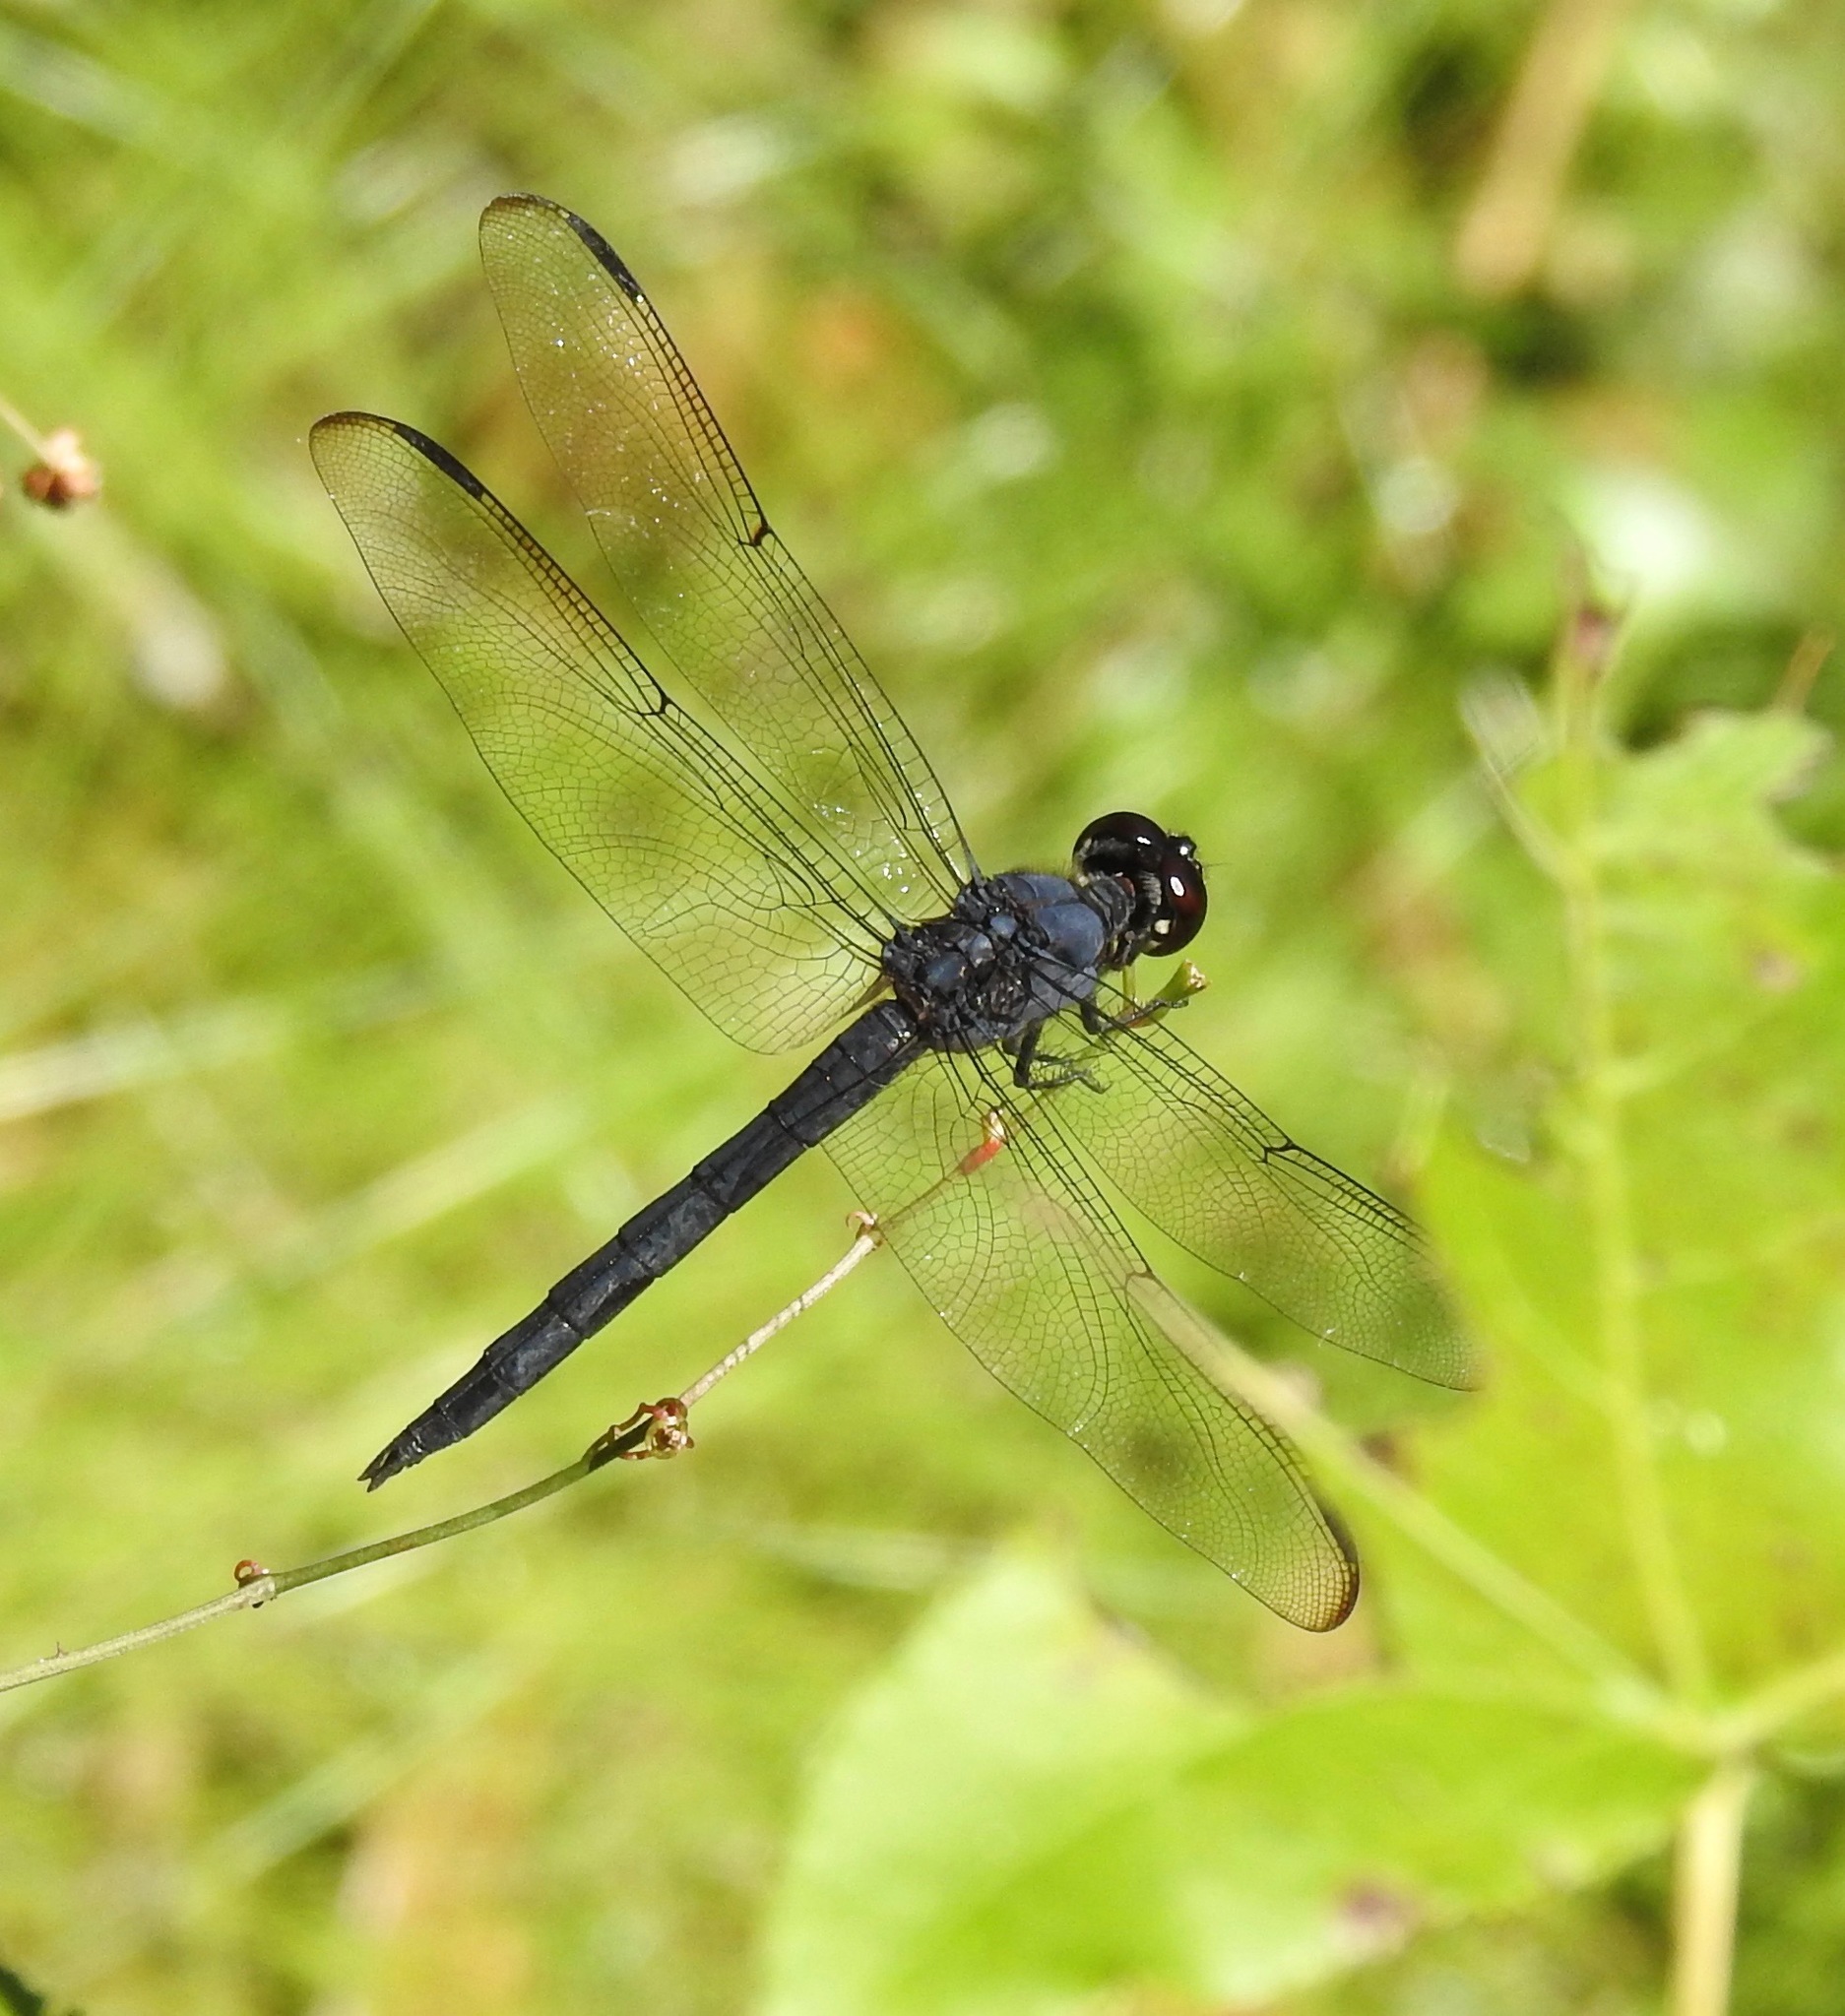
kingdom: Animalia
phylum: Arthropoda
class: Insecta
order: Odonata
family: Libellulidae
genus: Libellula
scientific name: Libellula incesta
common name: Slaty skimmer
